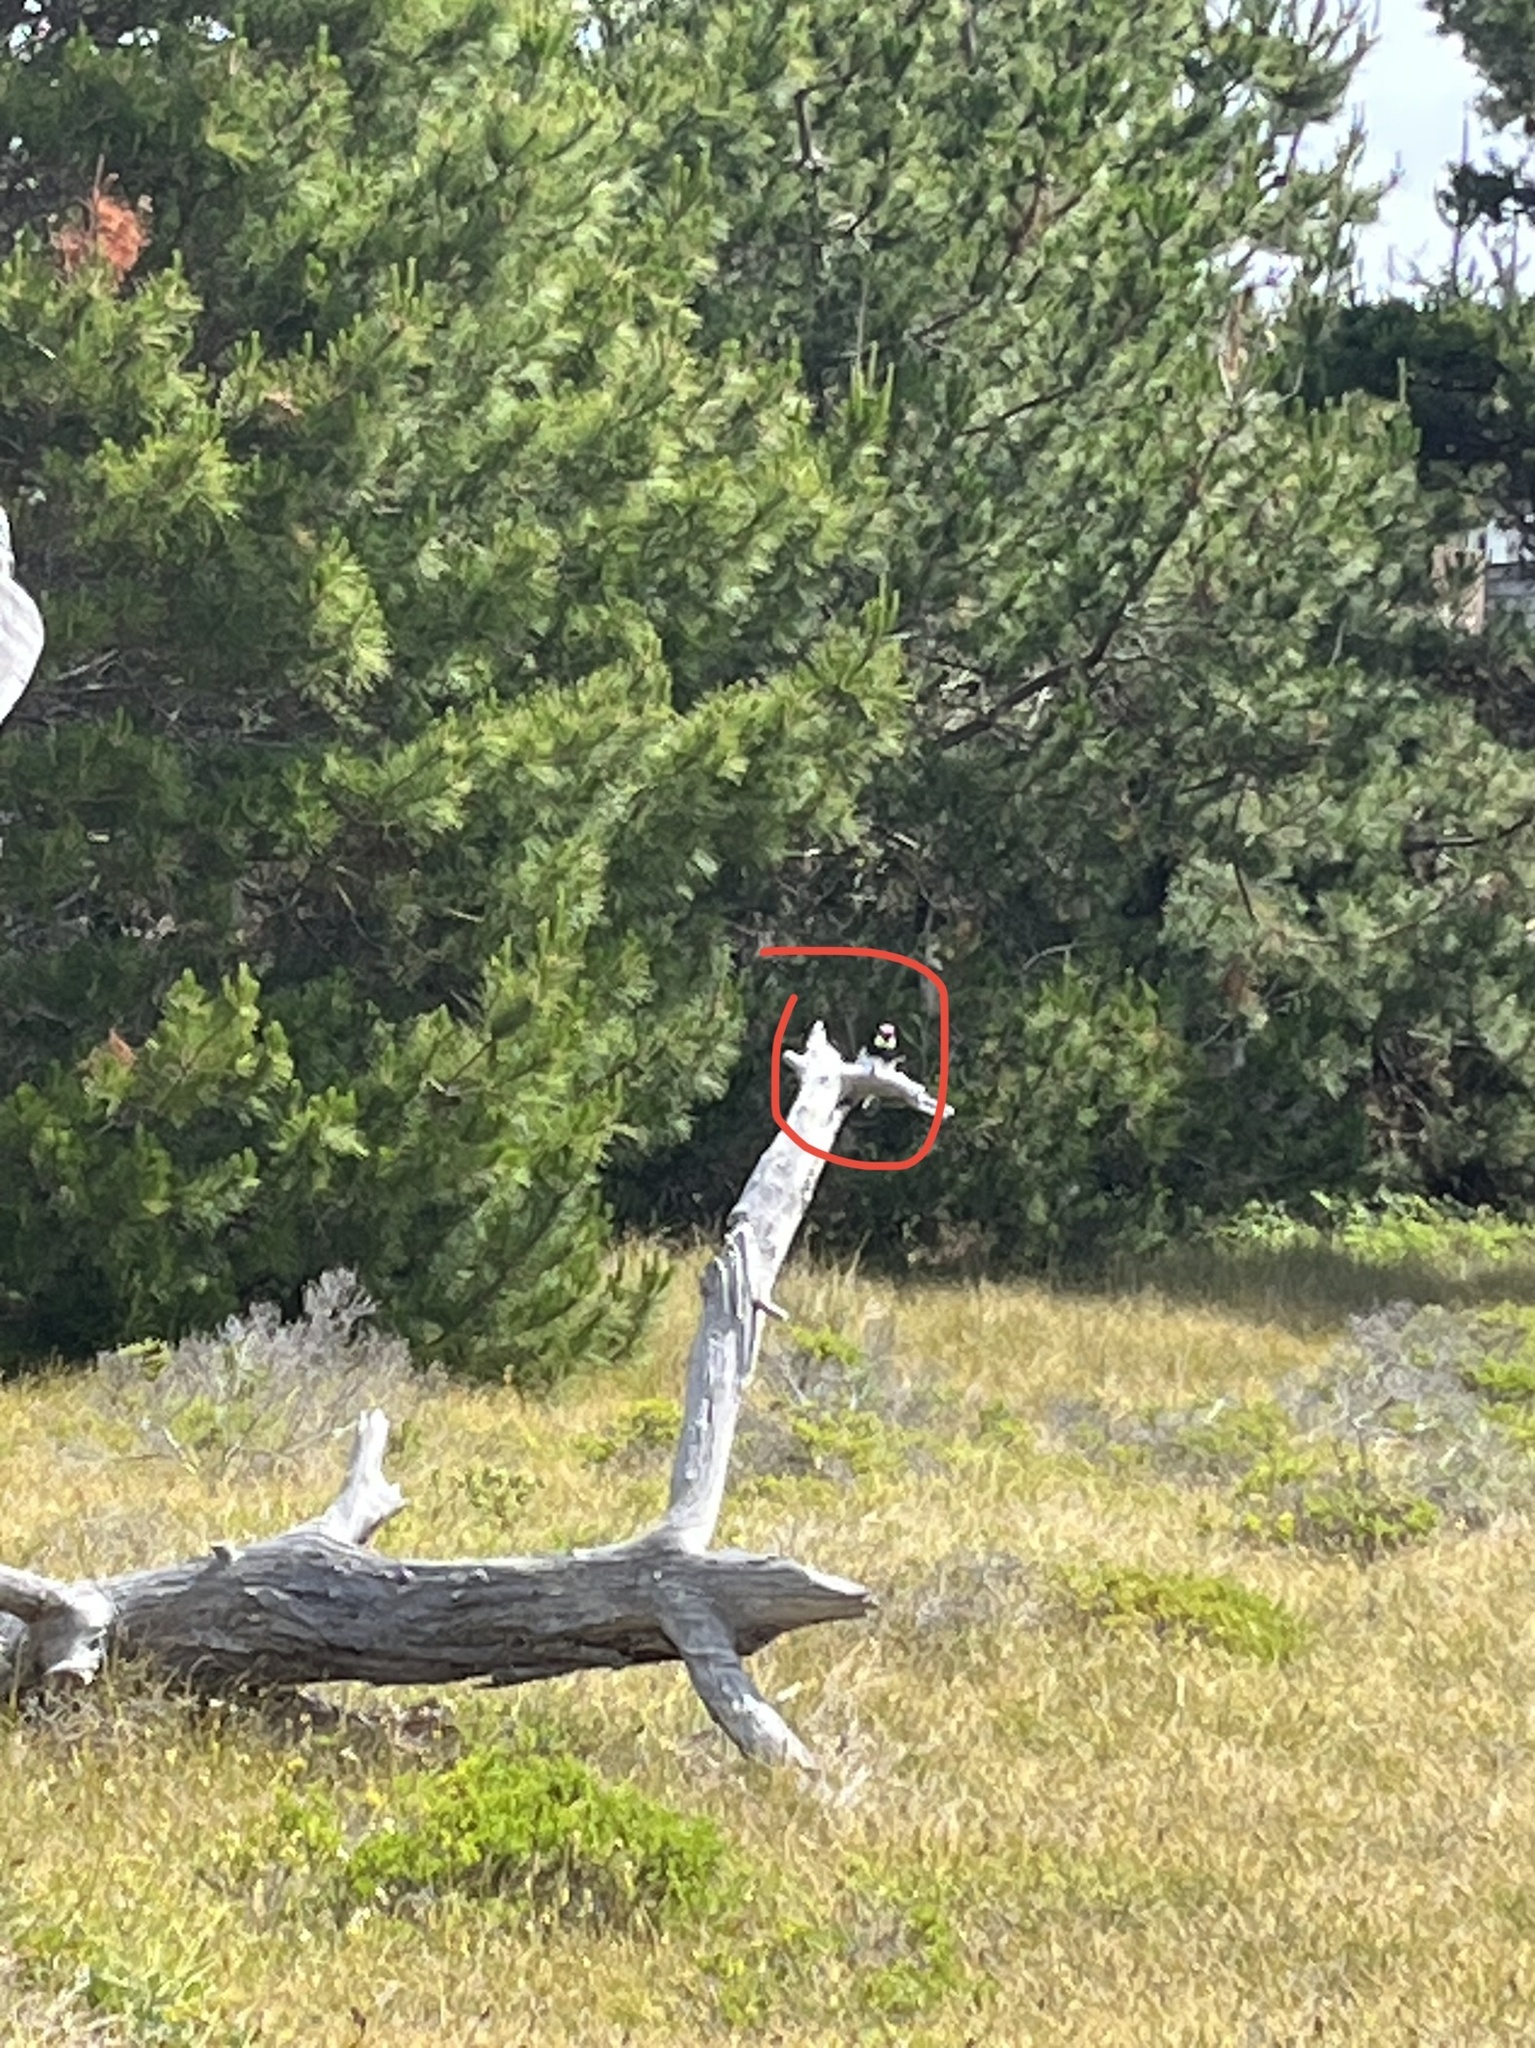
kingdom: Animalia
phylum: Chordata
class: Aves
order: Piciformes
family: Picidae
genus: Melanerpes
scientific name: Melanerpes formicivorus
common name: Acorn woodpecker
